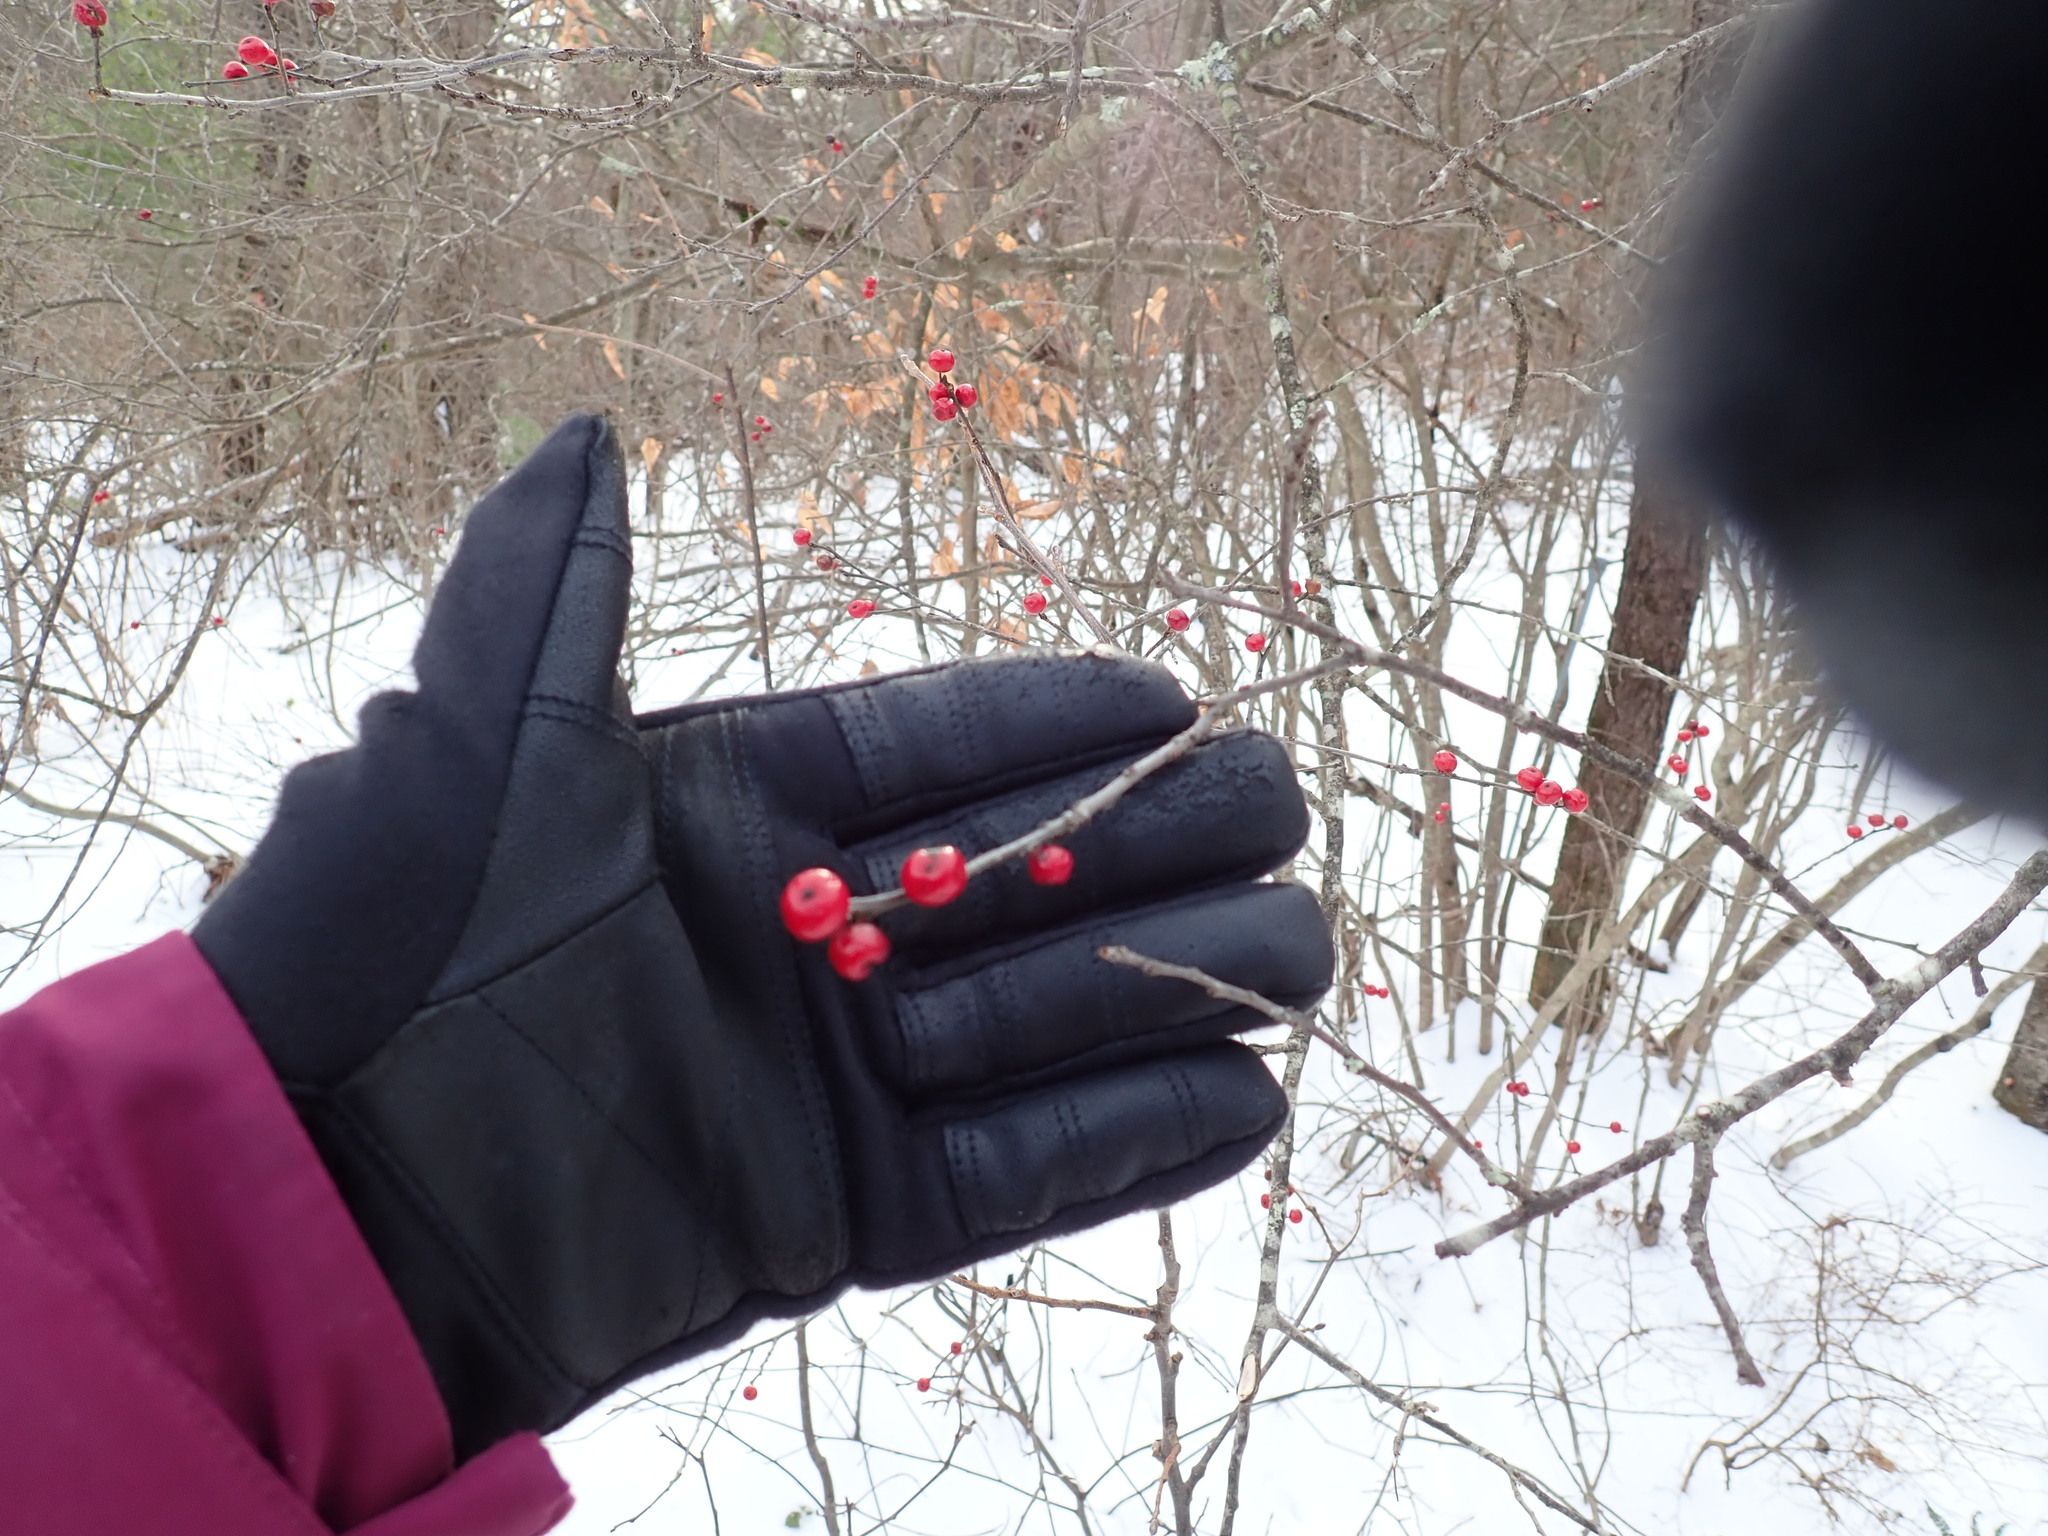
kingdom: Plantae
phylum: Tracheophyta
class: Magnoliopsida
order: Aquifoliales
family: Aquifoliaceae
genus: Ilex
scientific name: Ilex verticillata
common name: Virginia winterberry
